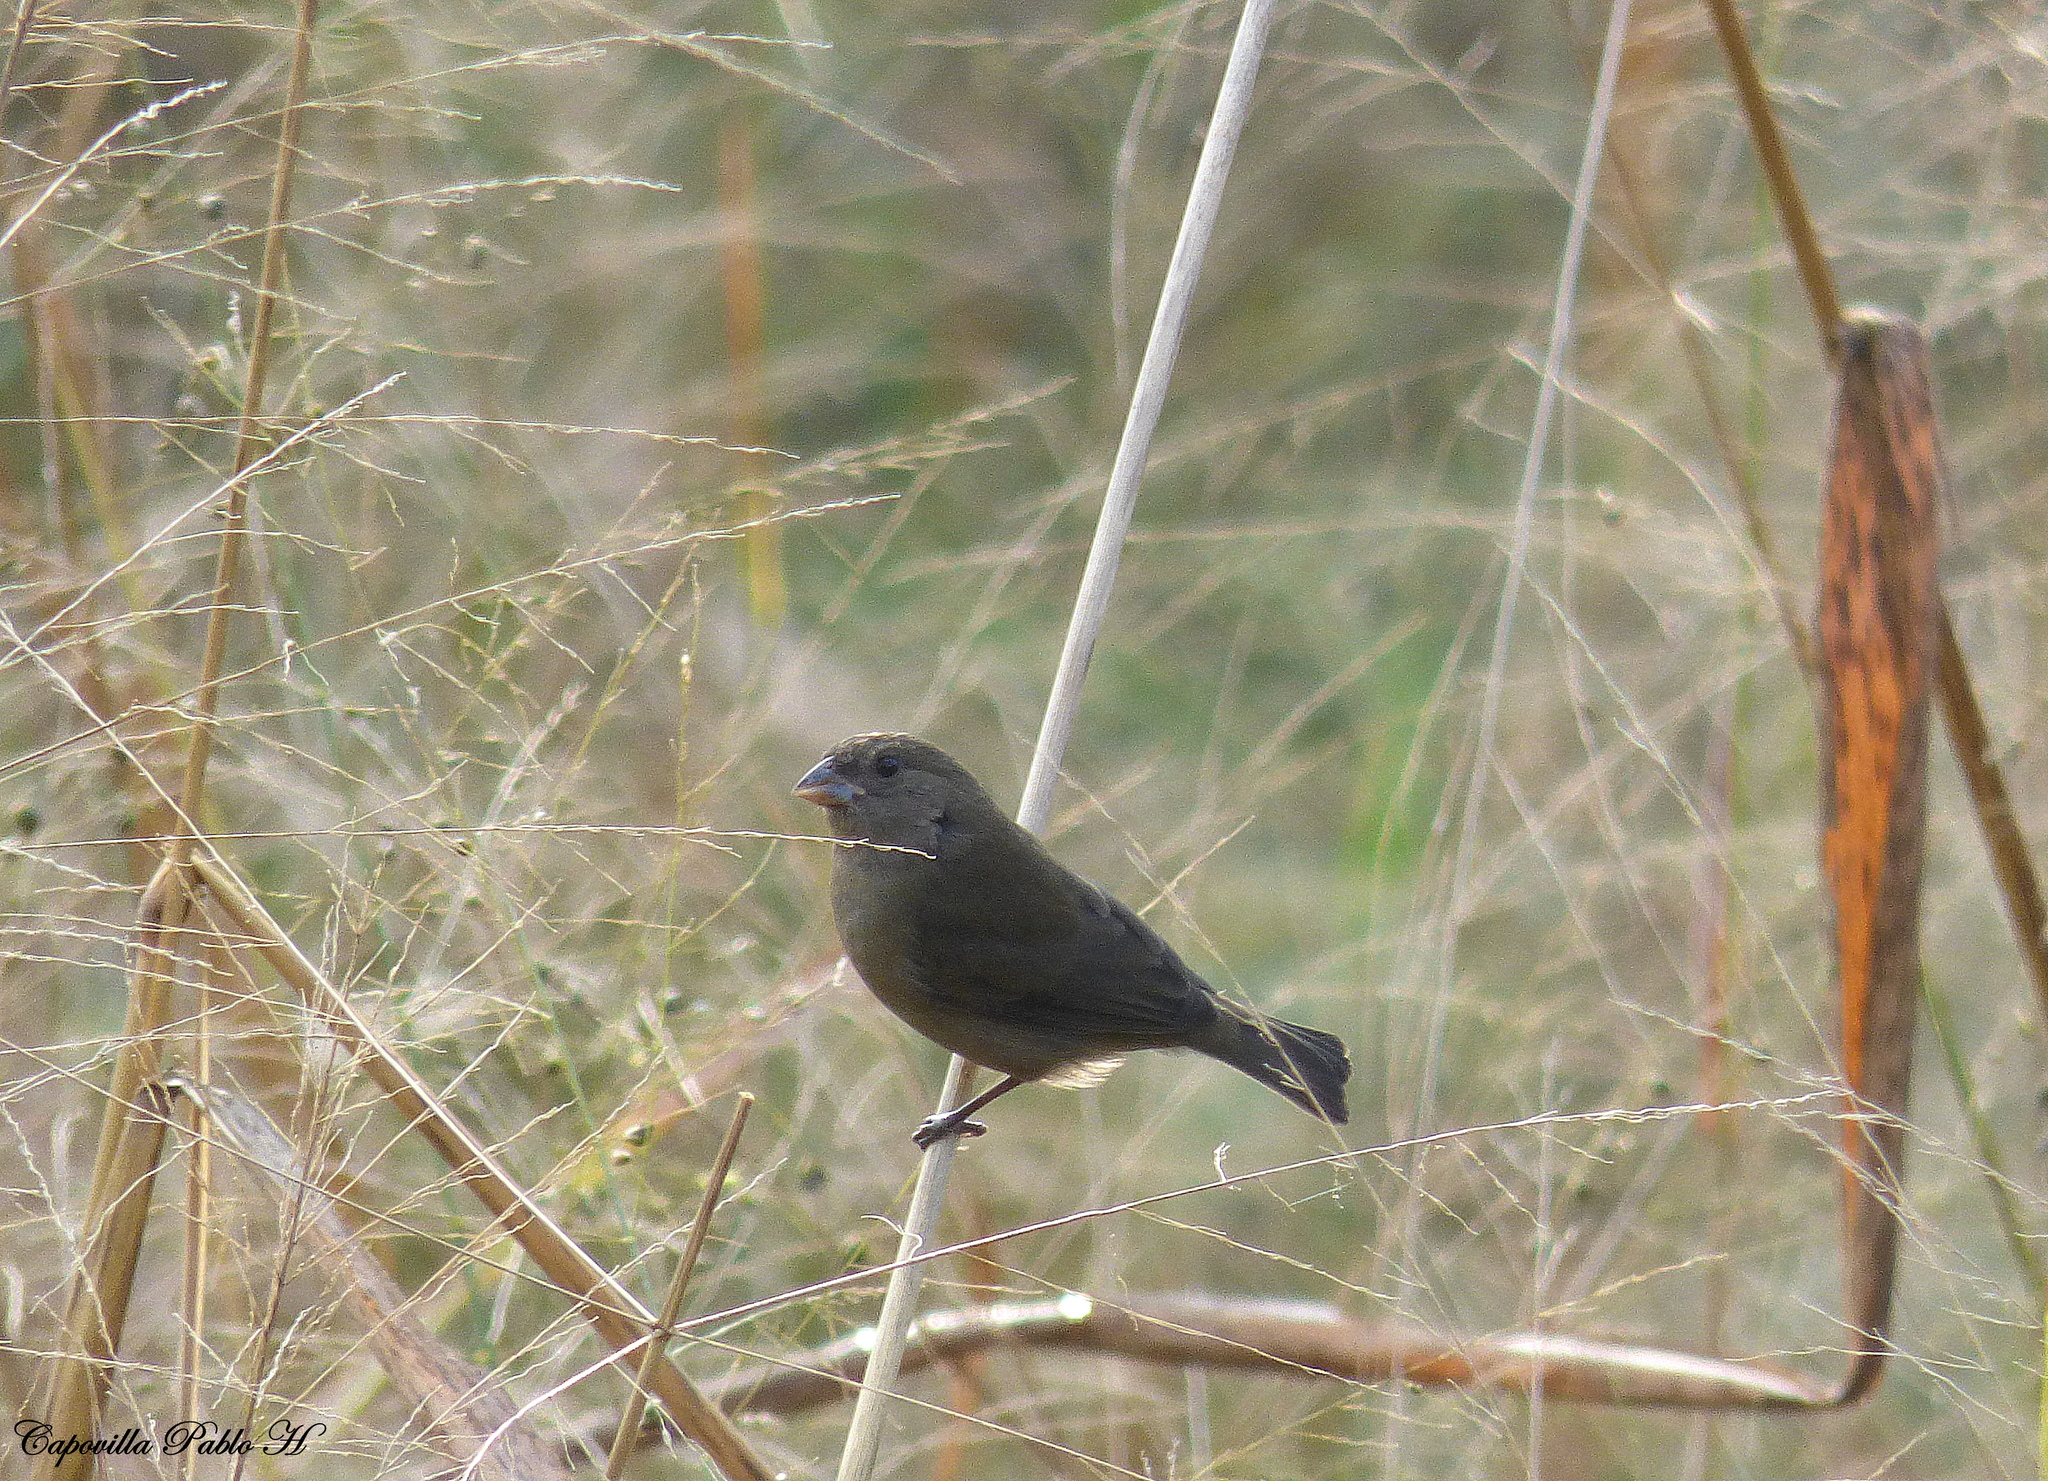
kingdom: Animalia
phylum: Chordata
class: Aves
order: Passeriformes
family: Thraupidae
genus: Asemospiza
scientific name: Asemospiza fuliginosa
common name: Sooty grassquit
